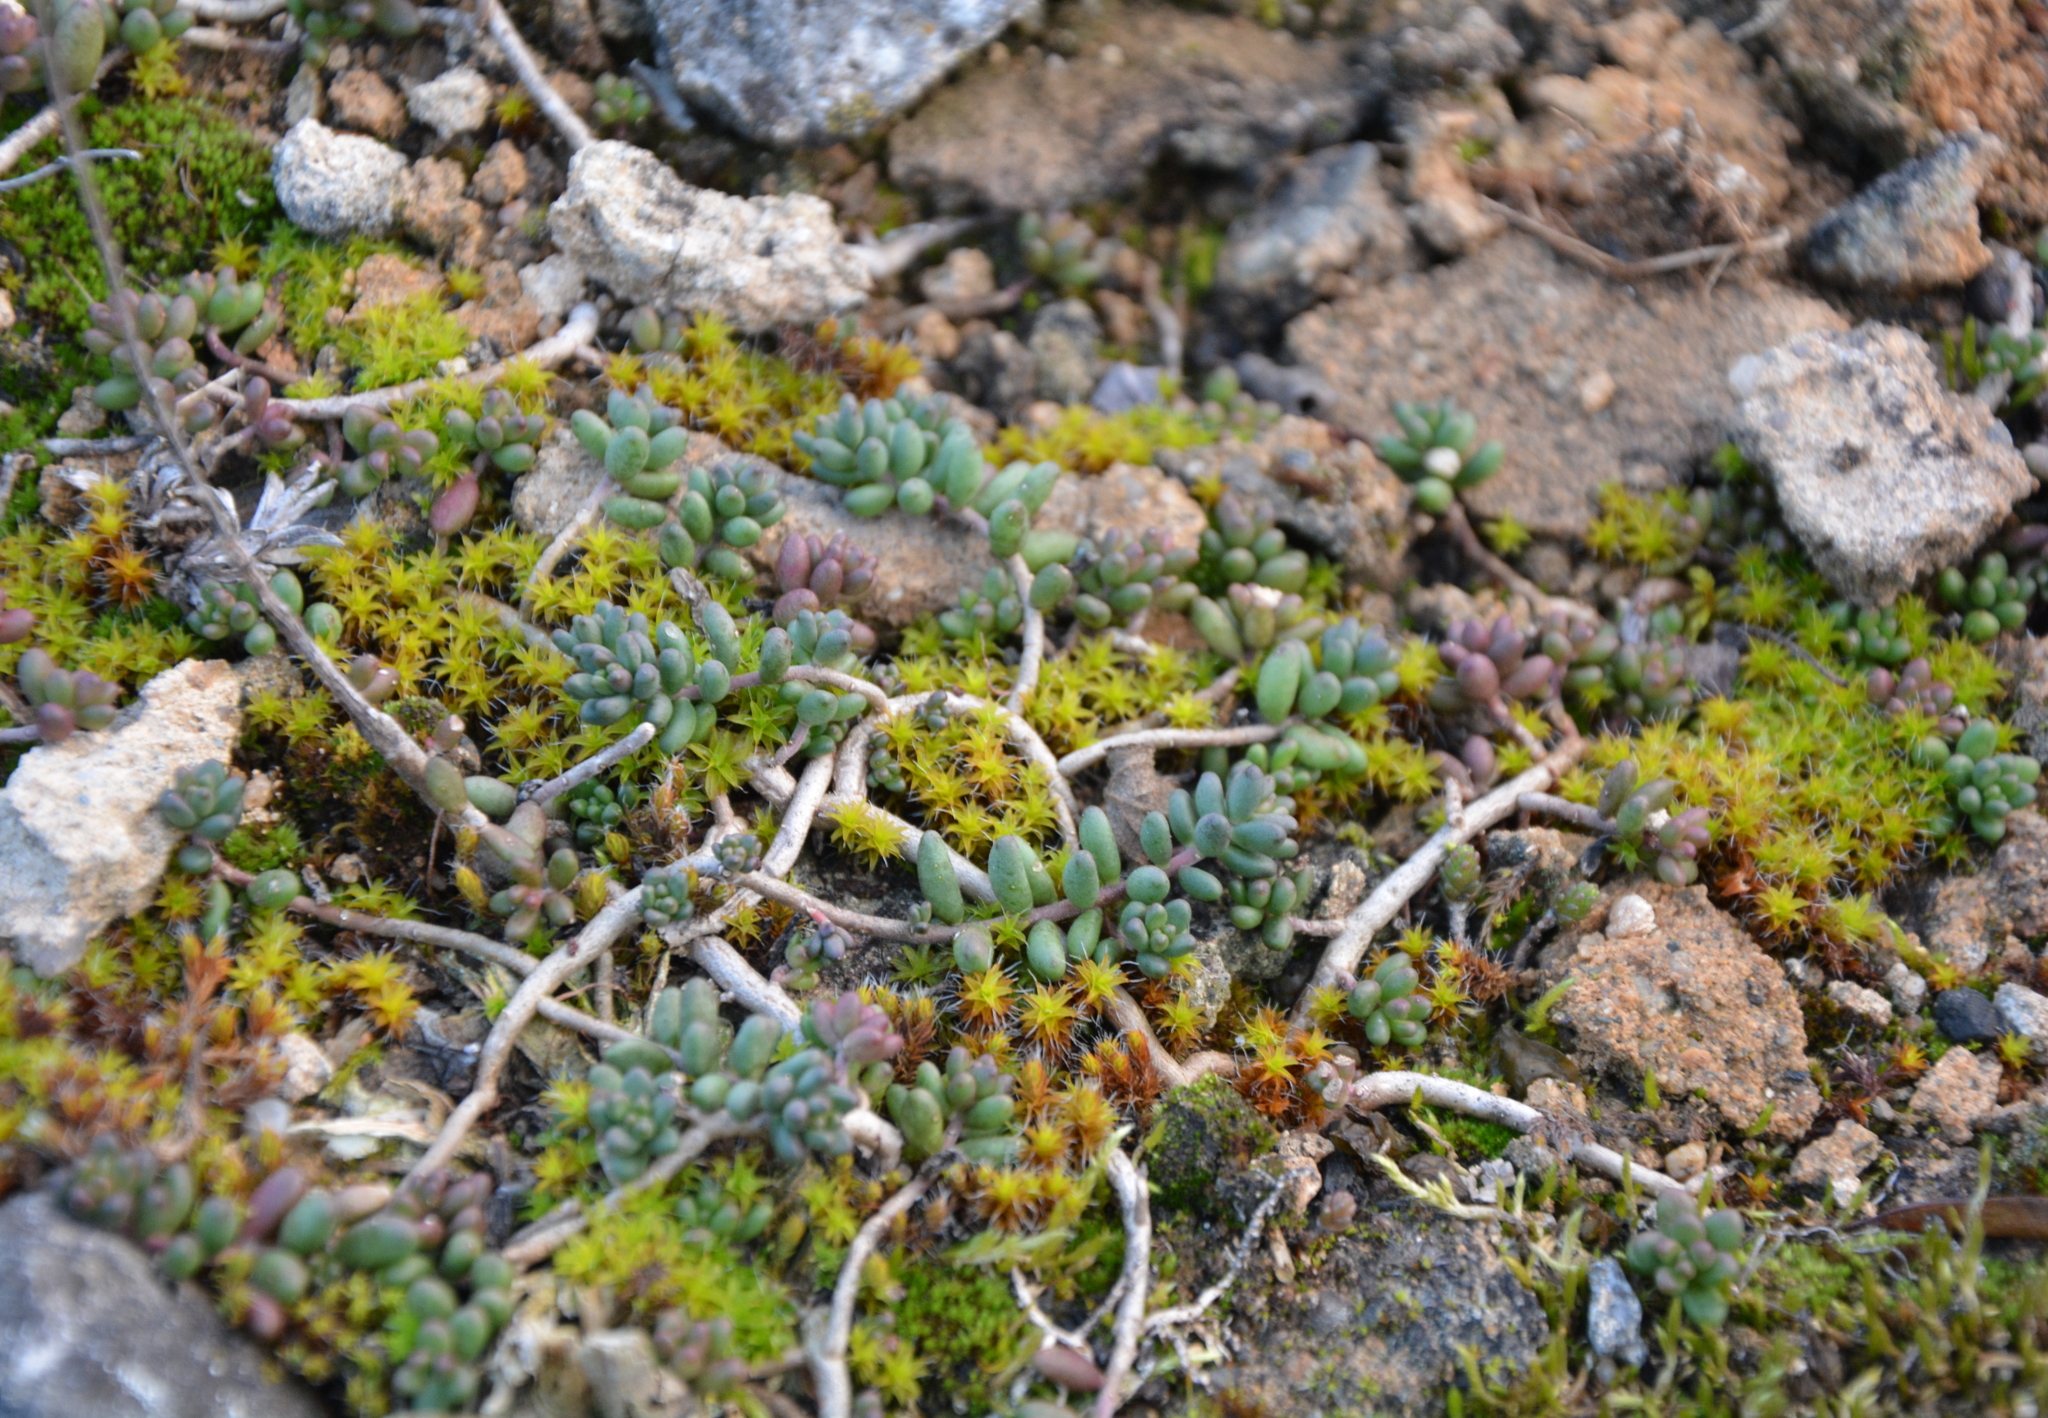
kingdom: Plantae
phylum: Tracheophyta
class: Magnoliopsida
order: Saxifragales
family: Crassulaceae
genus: Sedum
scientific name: Sedum album
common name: White stonecrop
